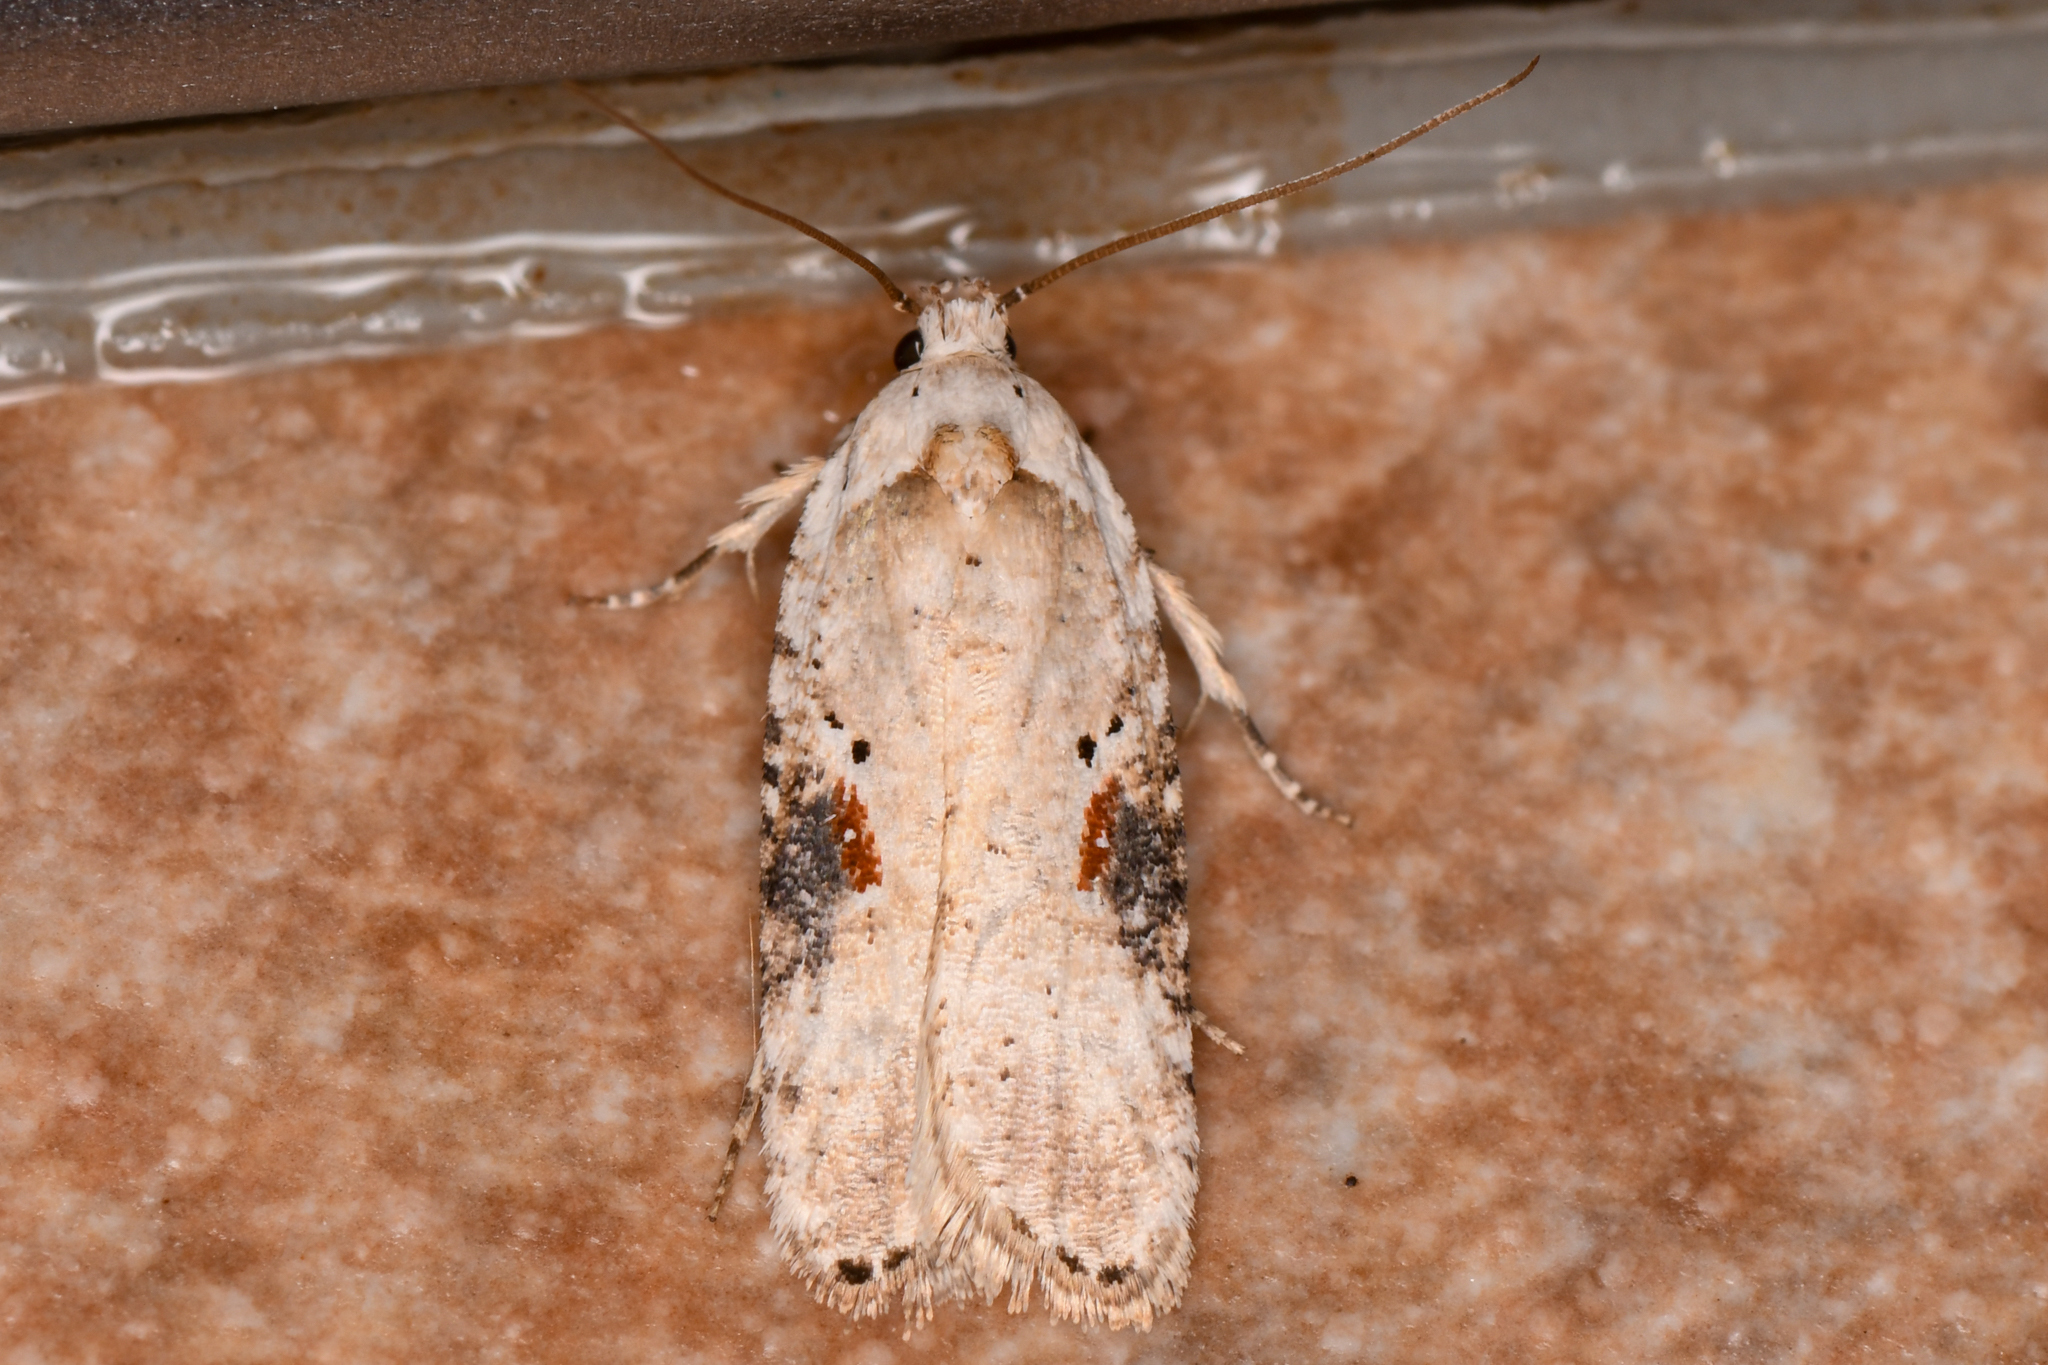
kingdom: Animalia
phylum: Arthropoda
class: Insecta
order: Lepidoptera
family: Depressariidae
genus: Agonopterix
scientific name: Agonopterix alstroemeriana
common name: Moth
